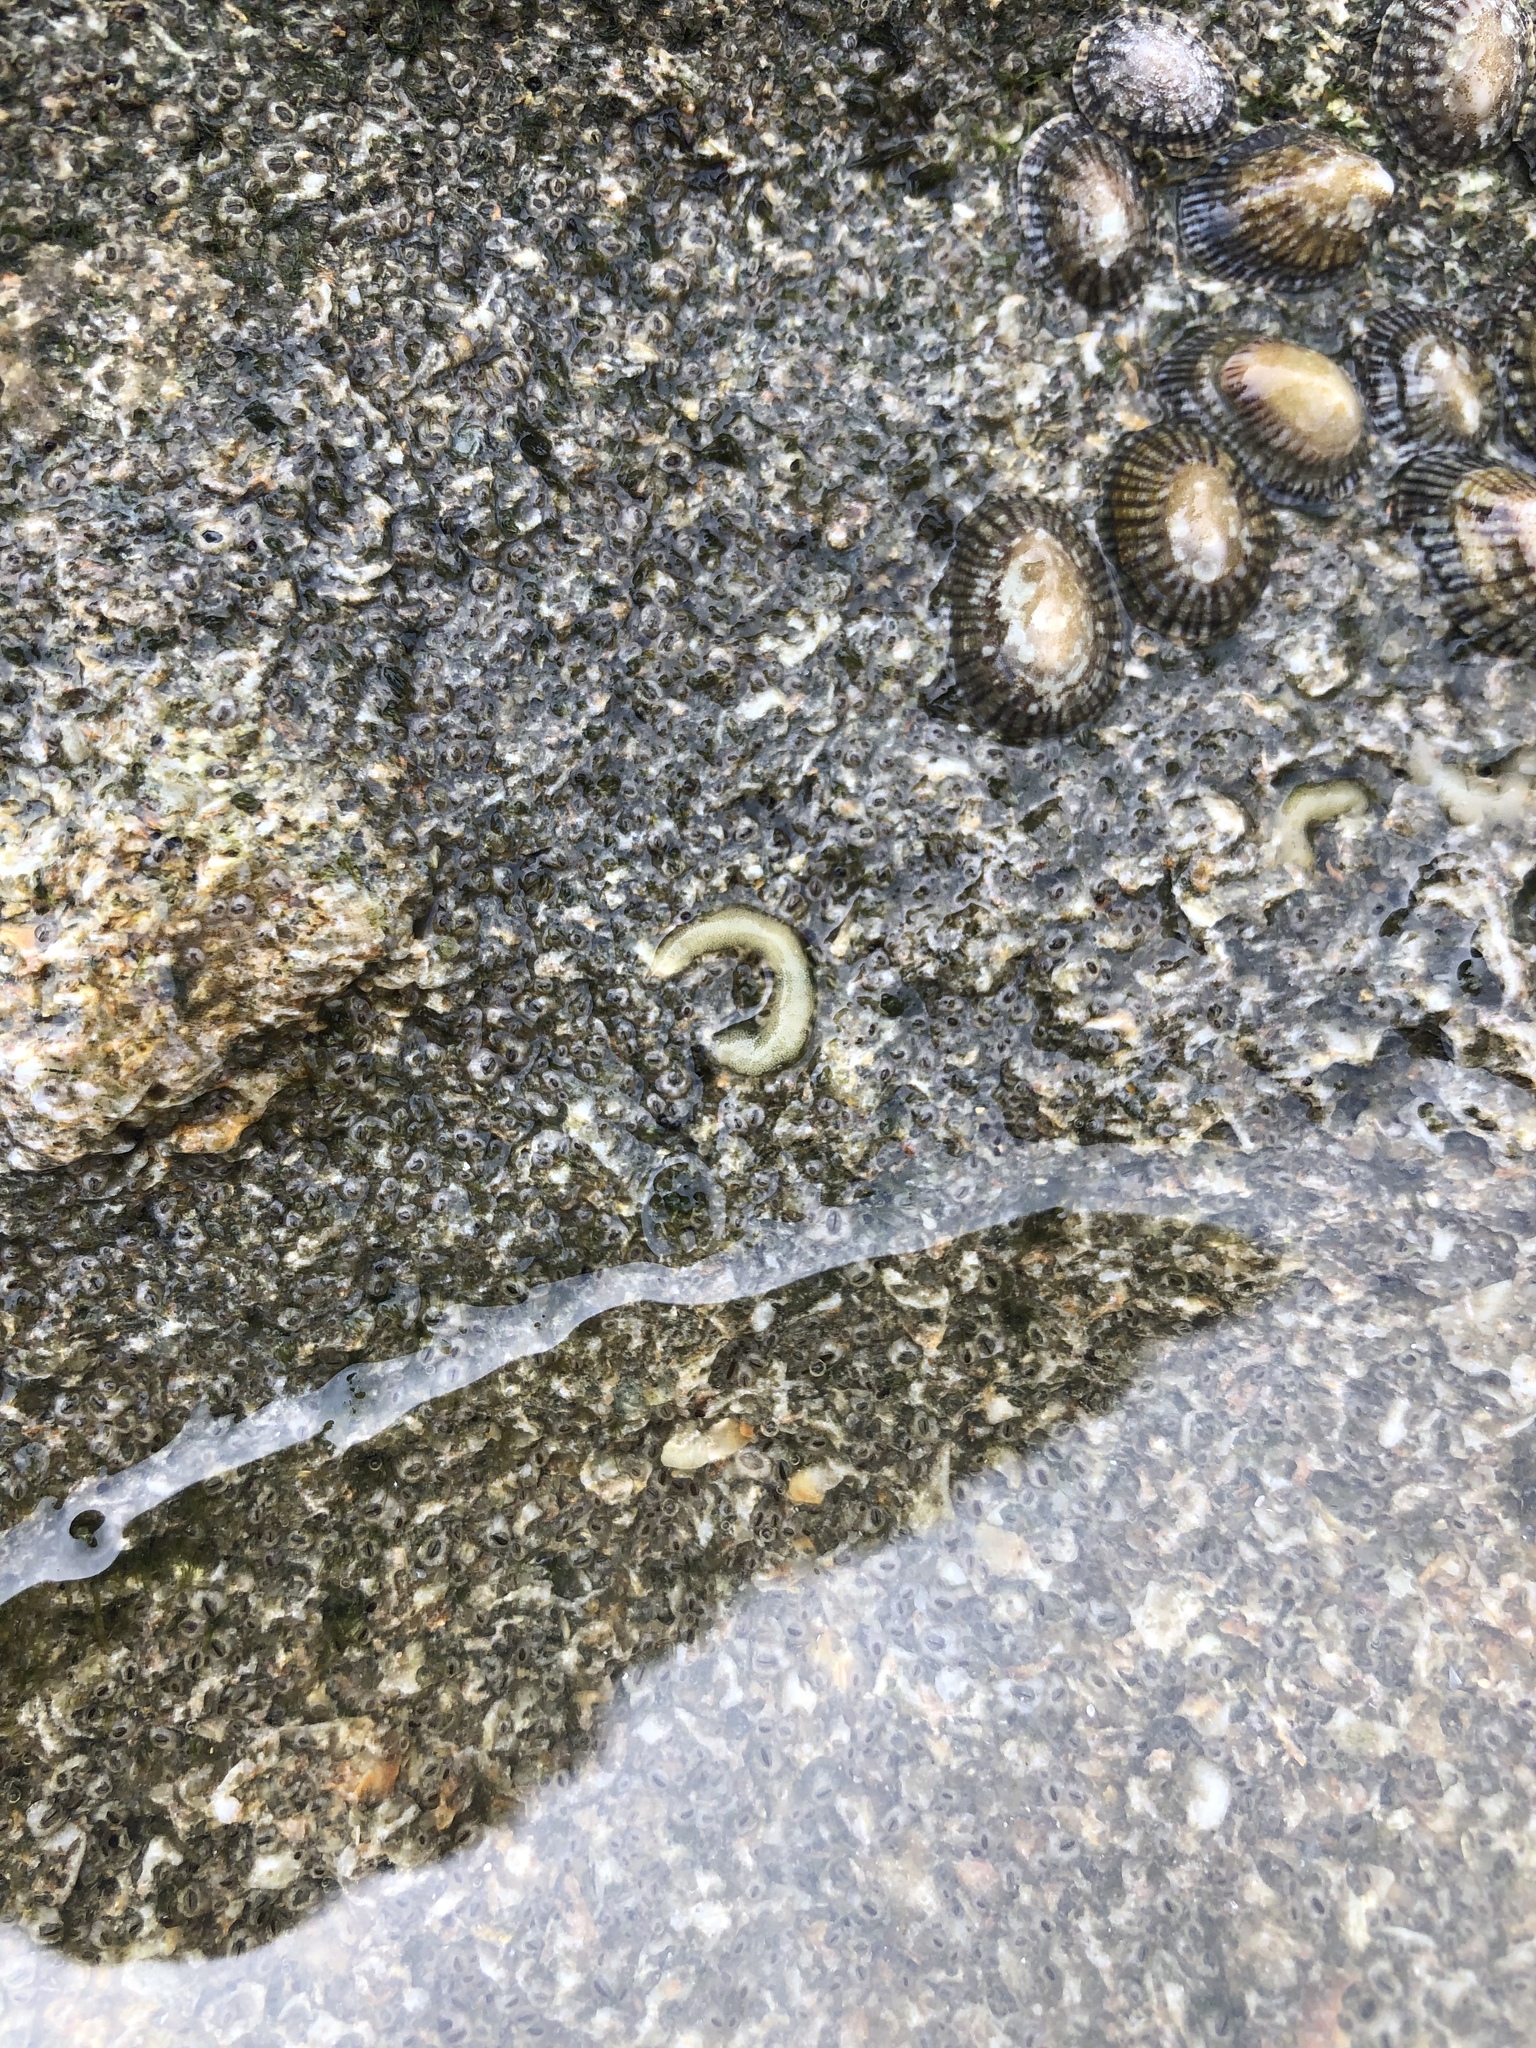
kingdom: Animalia
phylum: Mollusca
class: Gastropoda
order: Siphonariida
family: Siphonariidae
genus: Siphonaria
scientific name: Siphonaria naufragum
